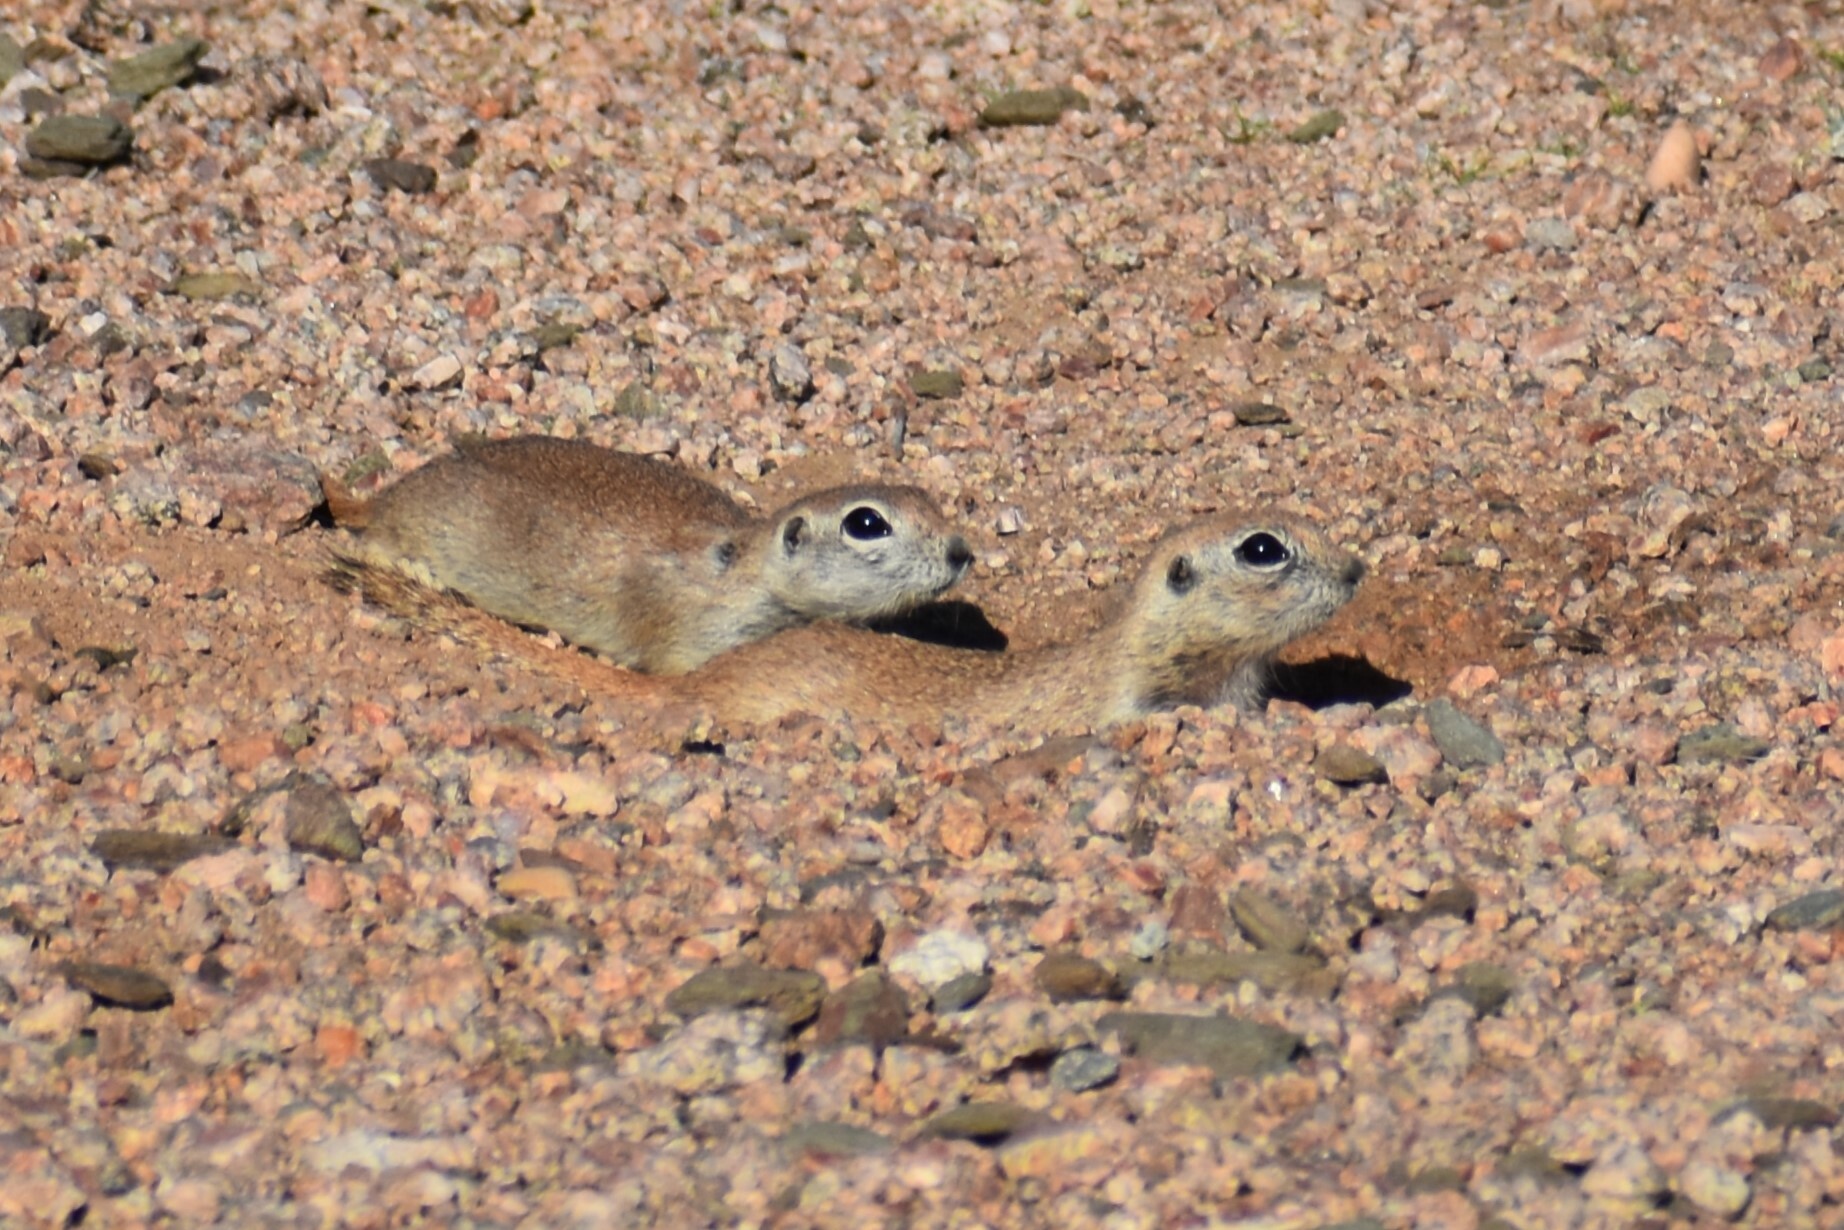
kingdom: Animalia
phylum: Chordata
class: Mammalia
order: Rodentia
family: Sciuridae
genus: Xerospermophilus
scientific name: Xerospermophilus tereticaudus
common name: Round-tailed ground squirrel
